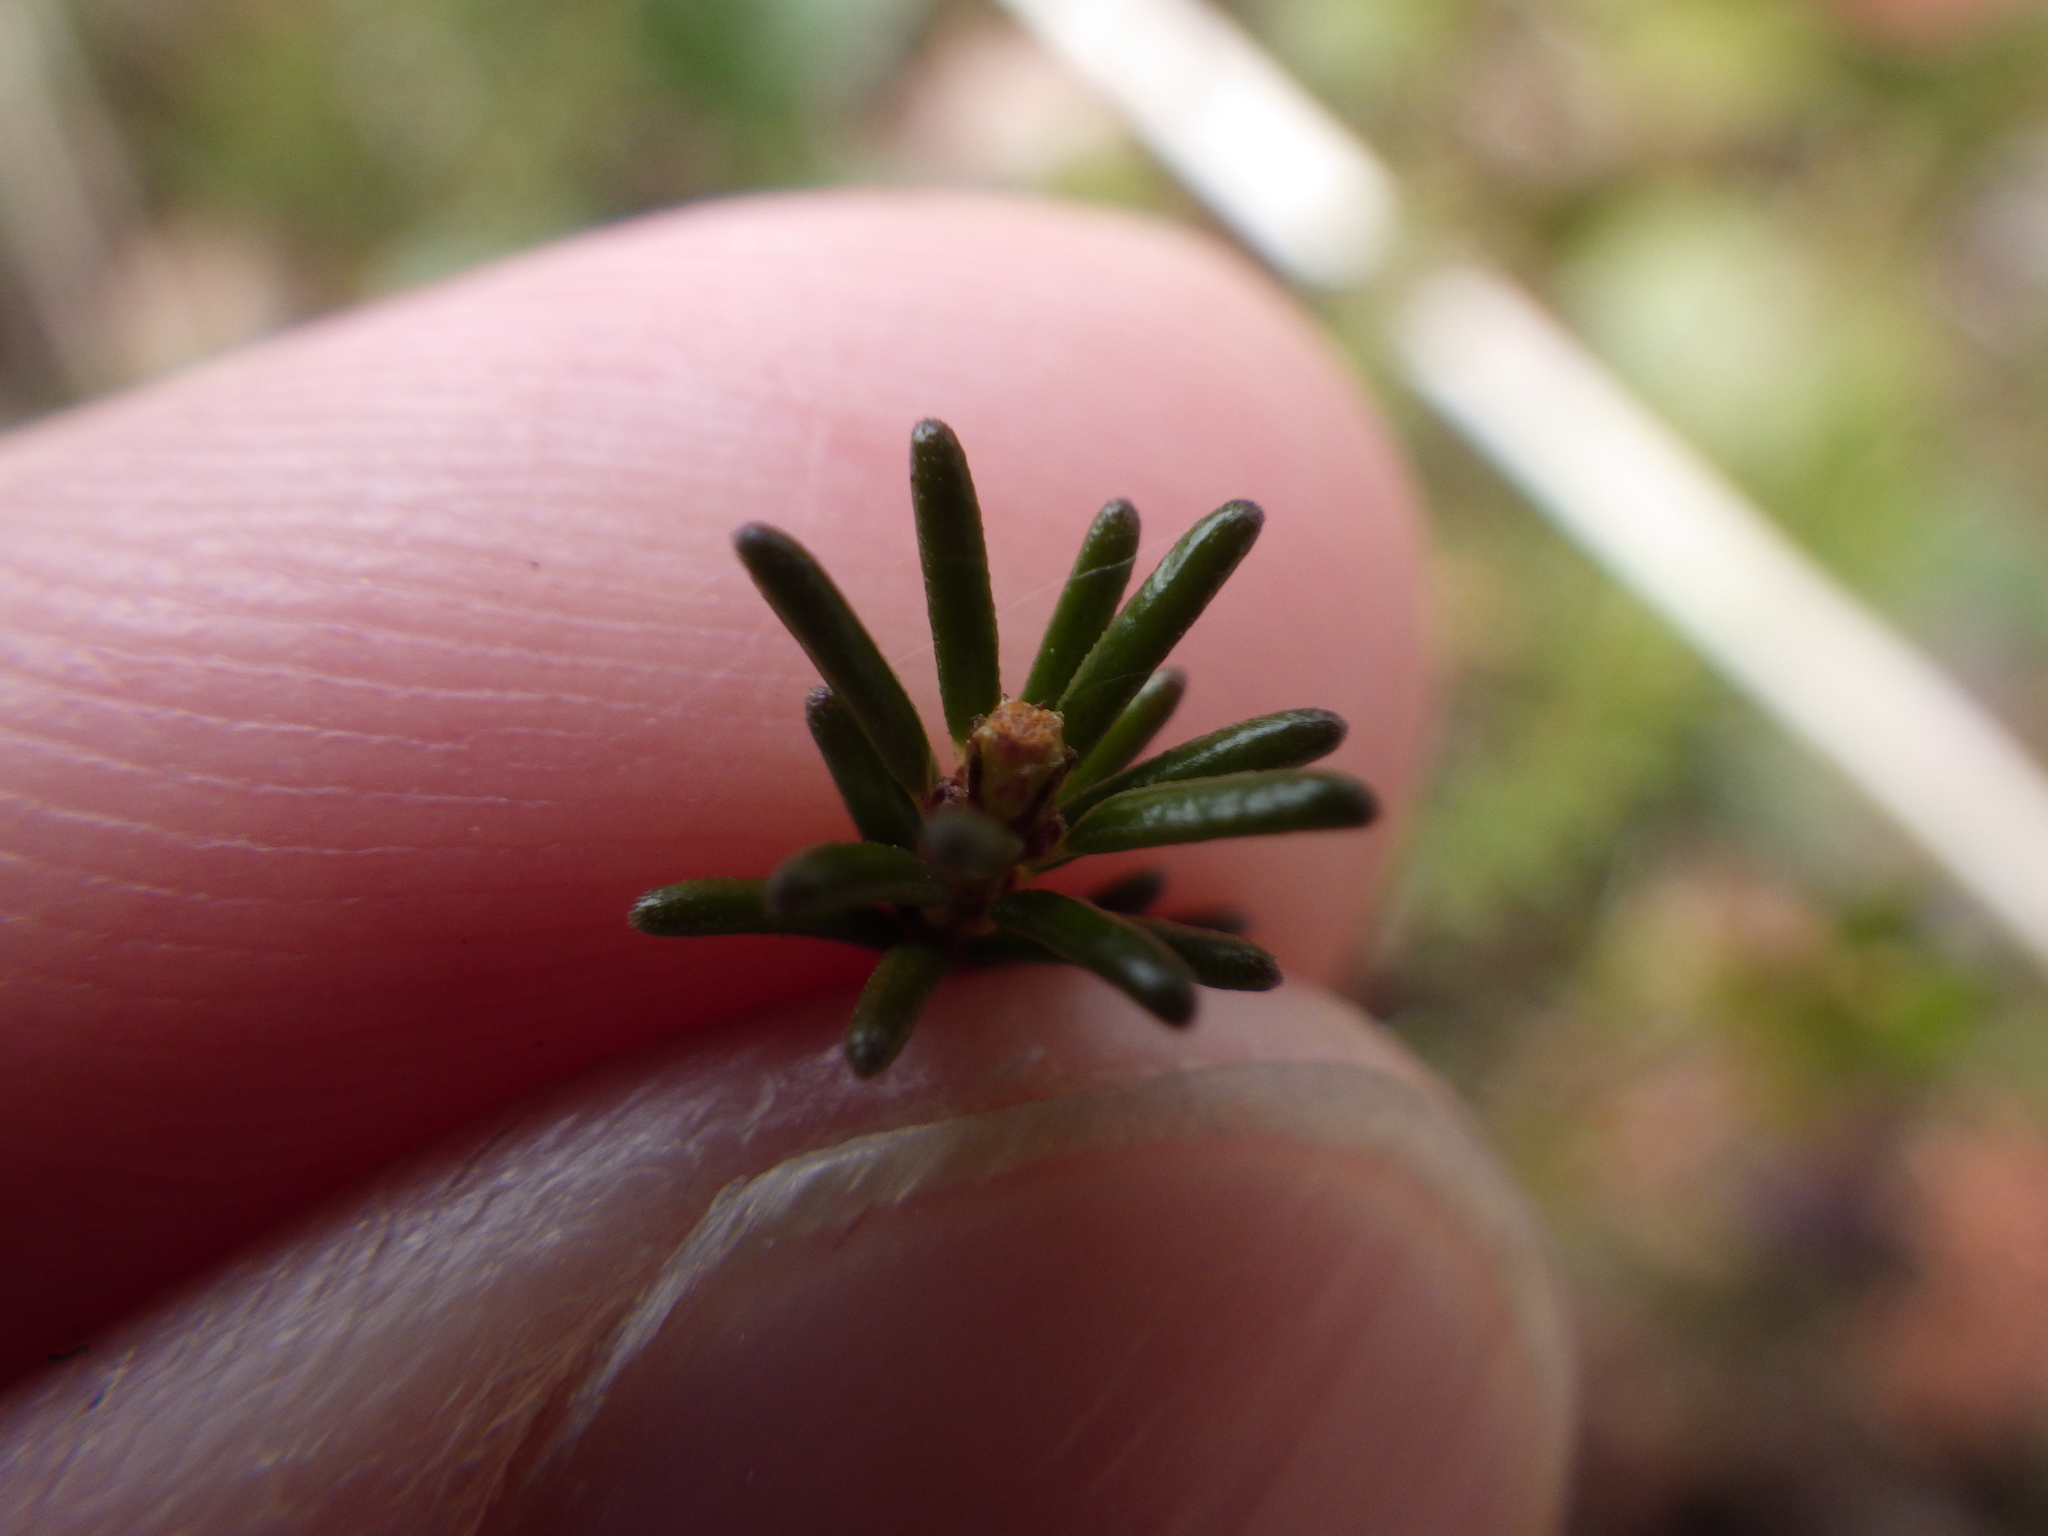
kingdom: Plantae
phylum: Tracheophyta
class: Magnoliopsida
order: Ericales
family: Ericaceae
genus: Corema
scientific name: Corema conradii
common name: Broom-crowberry
